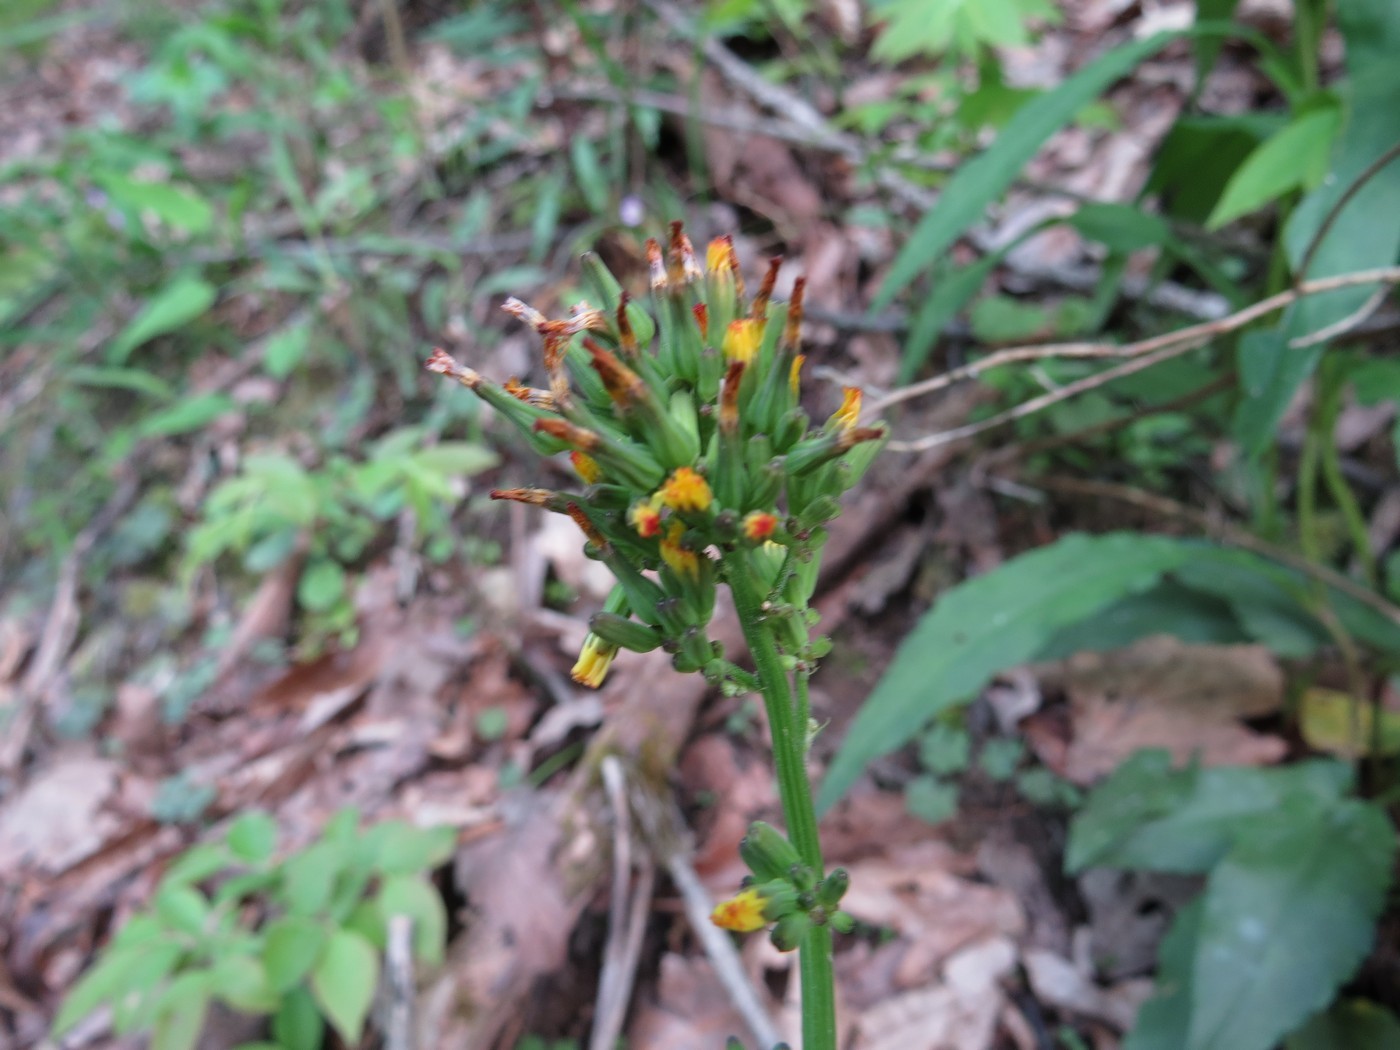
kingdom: Plantae
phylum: Tracheophyta
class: Magnoliopsida
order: Asterales
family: Asteraceae
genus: Youngia
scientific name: Youngia japonica
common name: Oriental false hawksbeard
